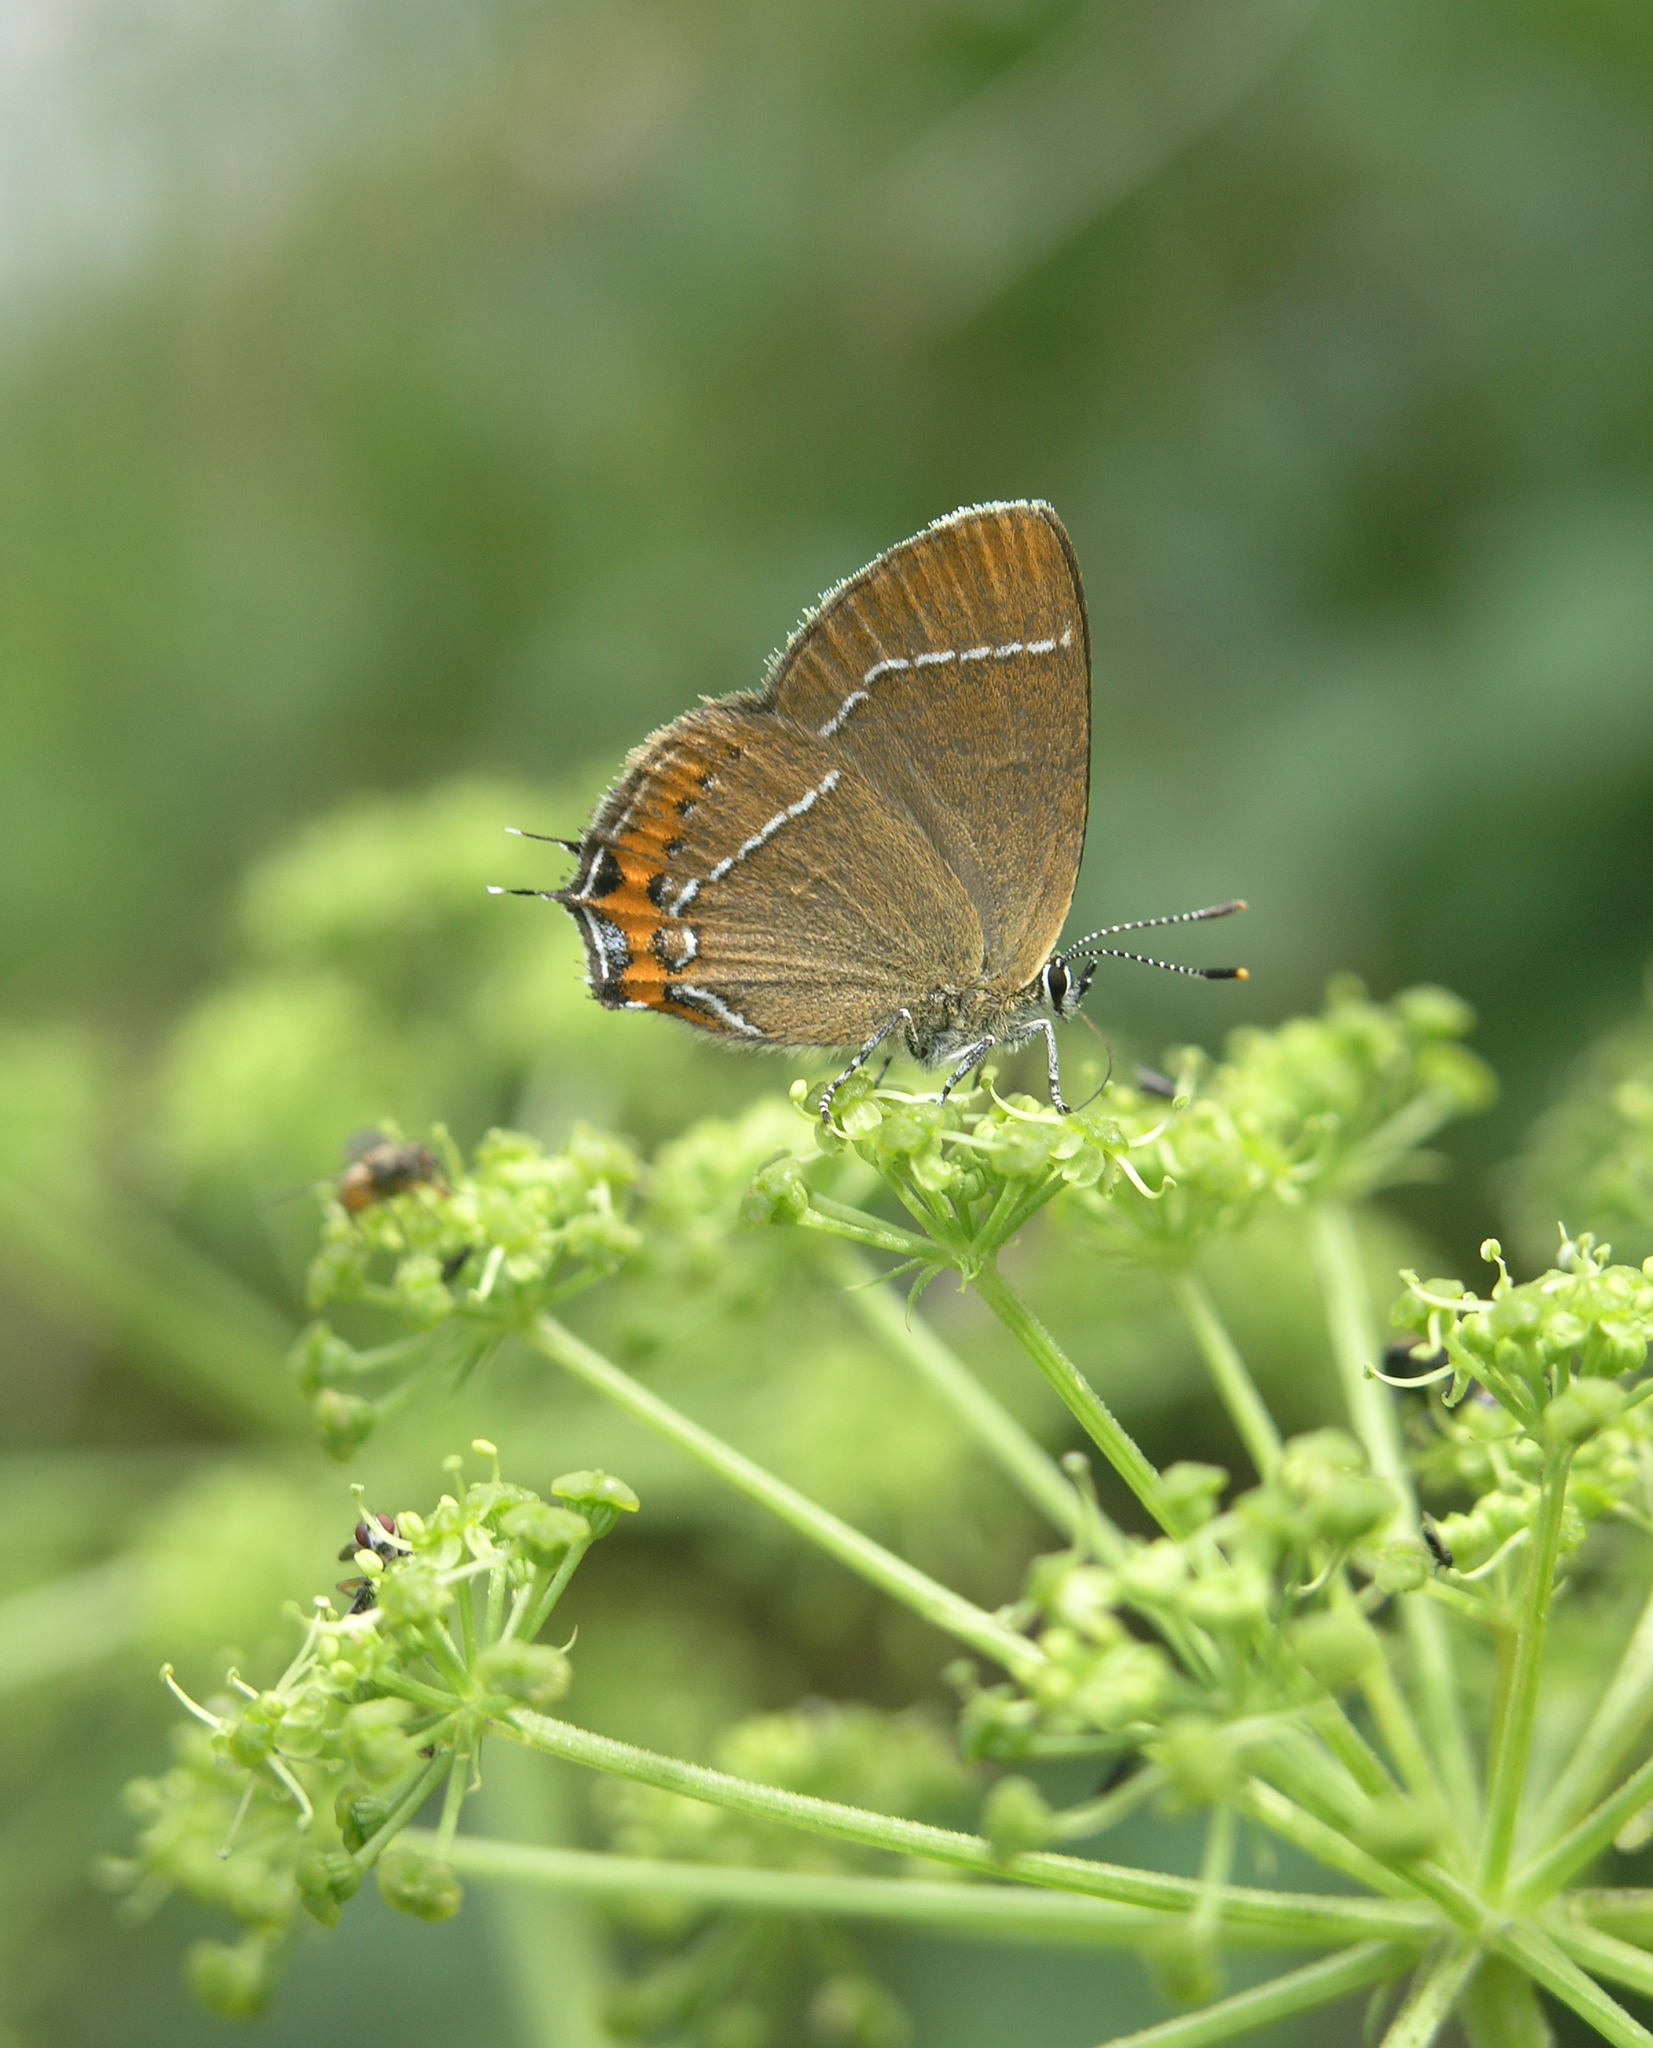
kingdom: Animalia
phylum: Arthropoda
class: Insecta
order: Lepidoptera
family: Lycaenidae
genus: Satyrium
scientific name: Satyrium prunoides
